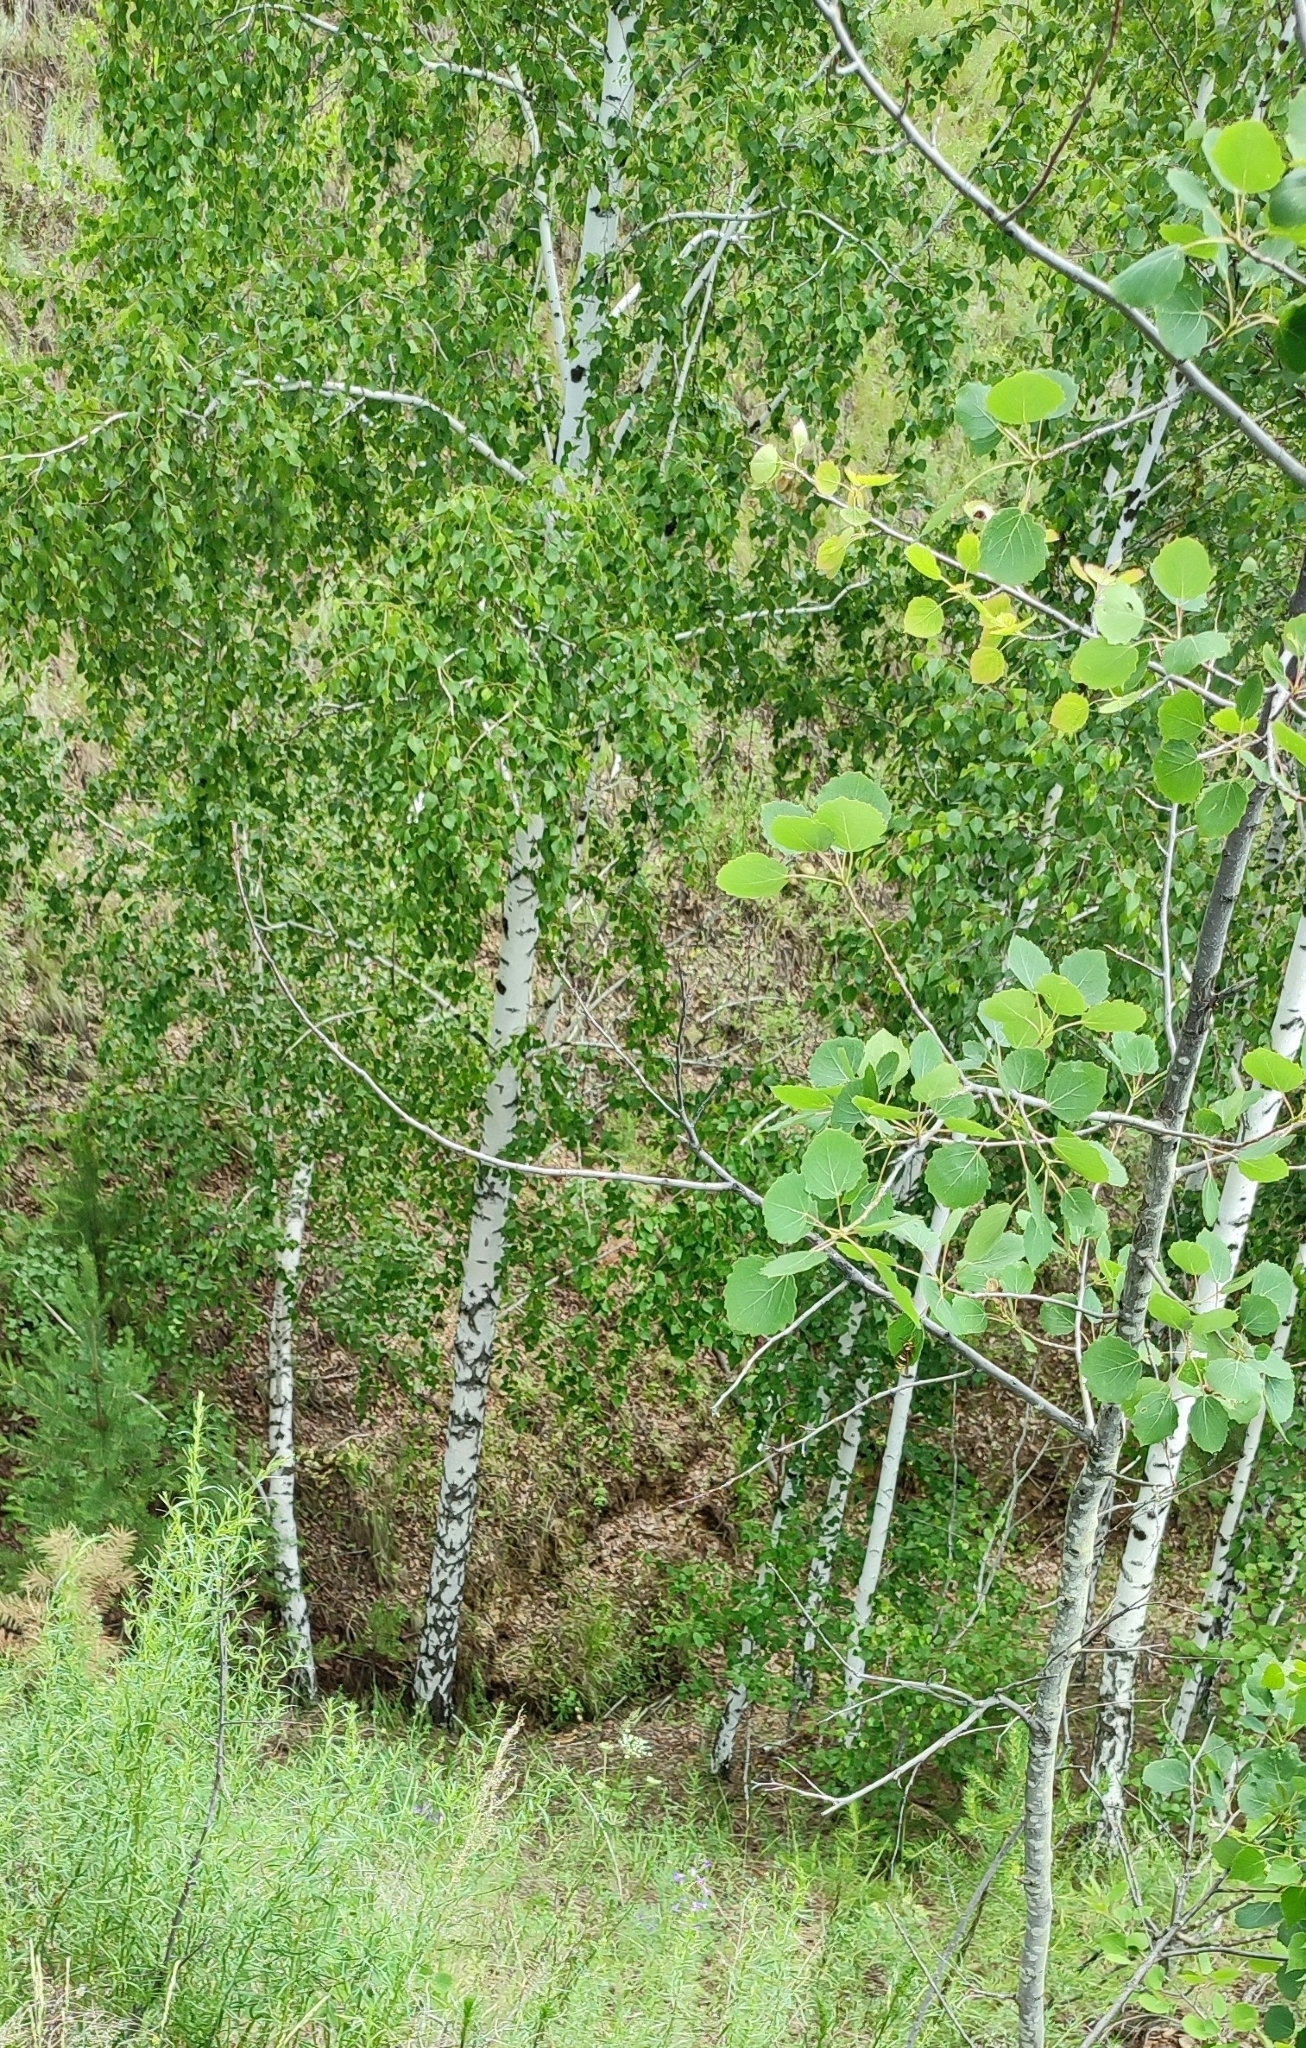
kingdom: Plantae
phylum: Tracheophyta
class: Magnoliopsida
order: Fagales
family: Betulaceae
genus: Betula
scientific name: Betula pendula
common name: Silver birch
